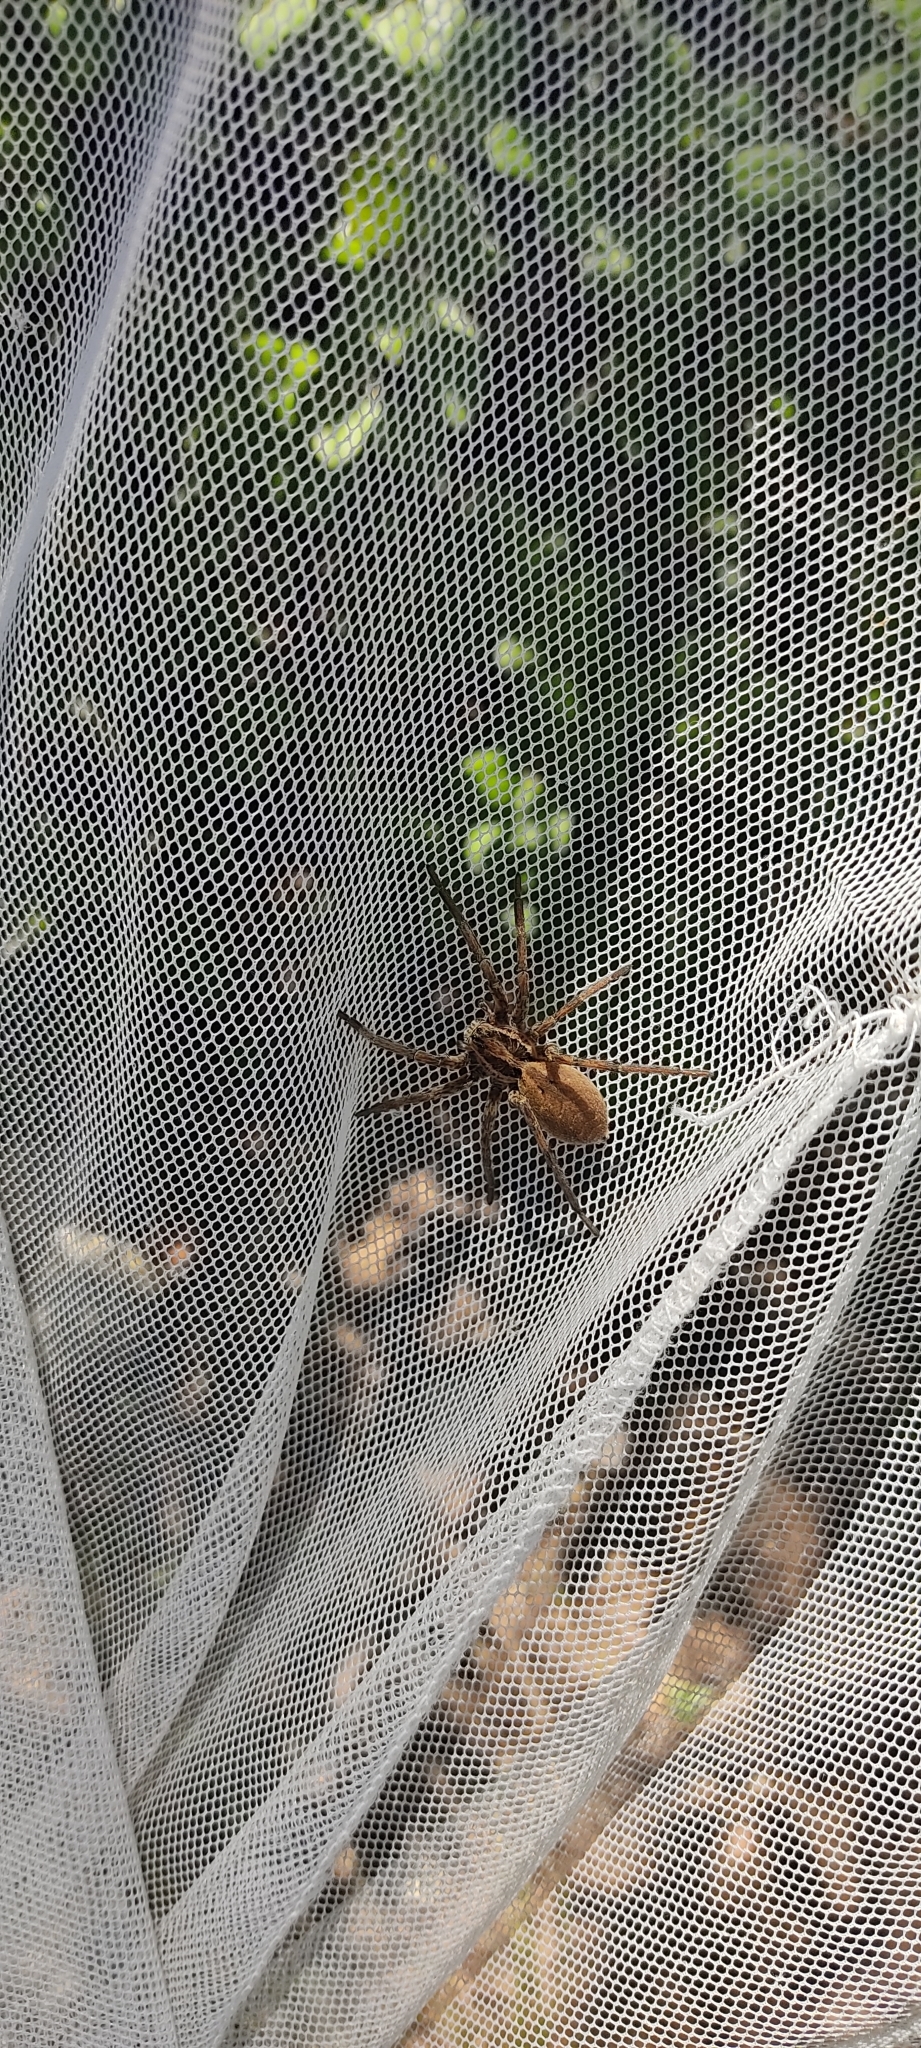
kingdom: Animalia
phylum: Arthropoda
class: Arachnida
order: Araneae
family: Lycosidae
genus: Hogna
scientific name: Hogna radiata
